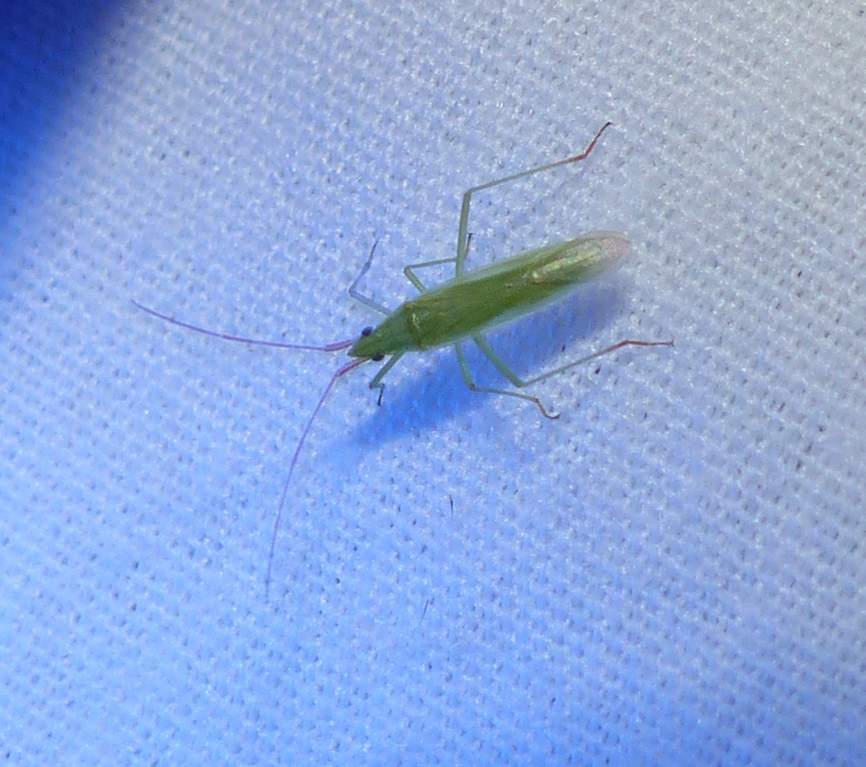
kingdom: Animalia
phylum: Arthropoda
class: Insecta
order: Hemiptera
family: Miridae
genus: Trigonotylus
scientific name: Trigonotylus caelestialium
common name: Rice leaf bug
